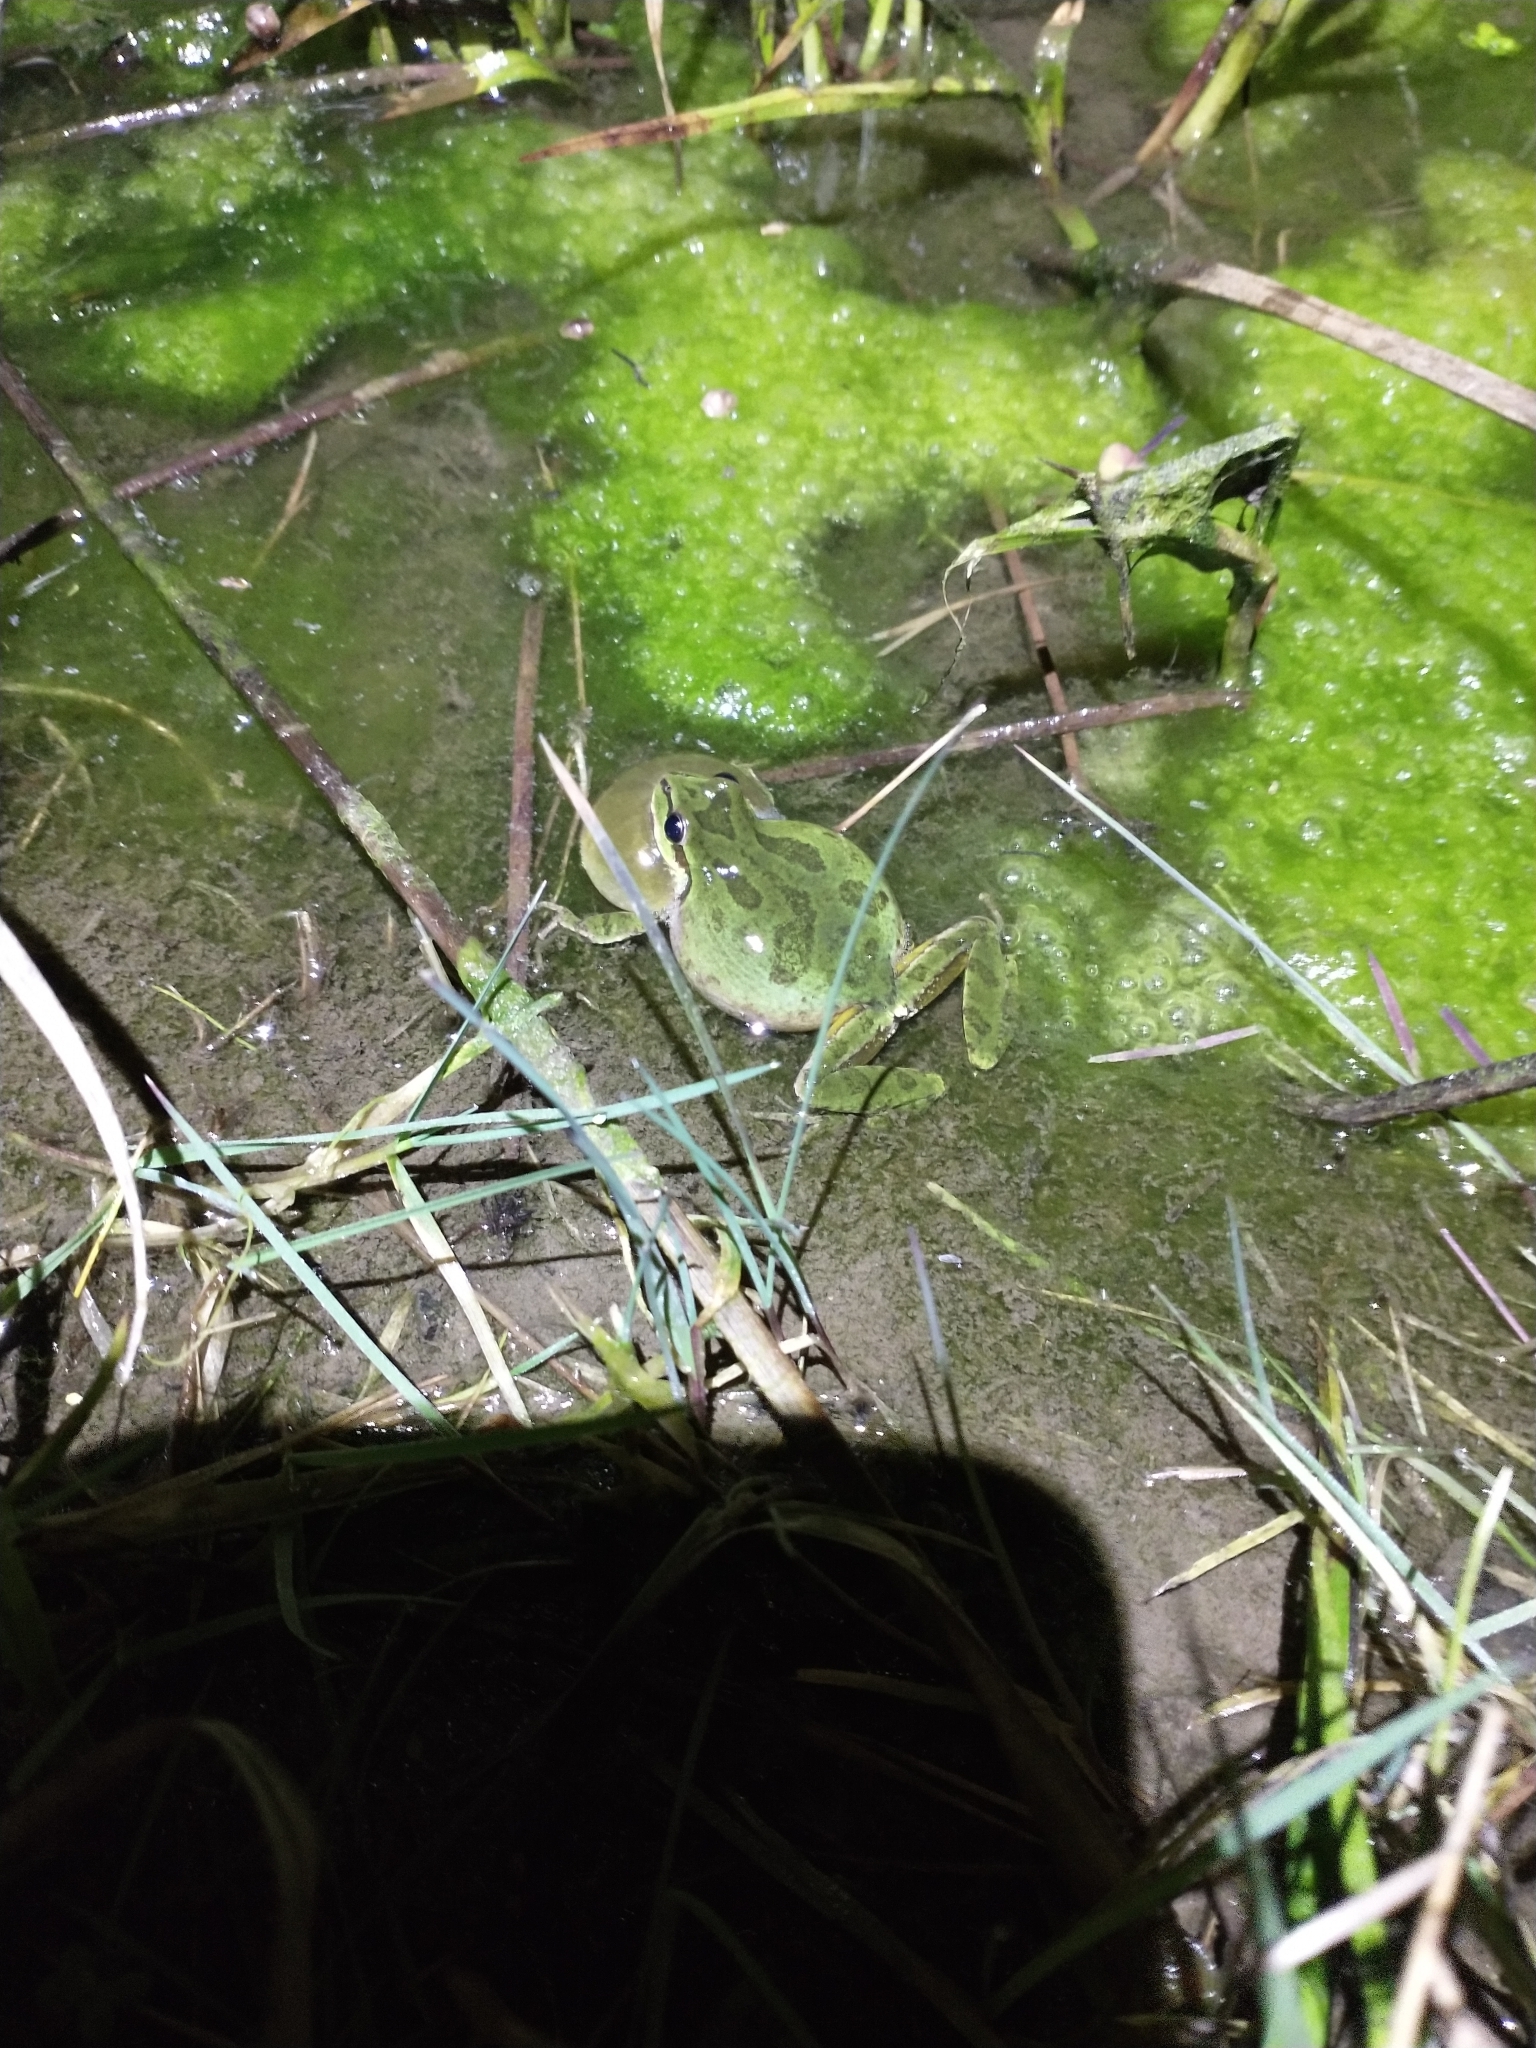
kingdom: Animalia
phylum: Chordata
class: Amphibia
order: Anura
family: Hylidae
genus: Pseudacris
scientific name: Pseudacris regilla
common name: Pacific chorus frog
